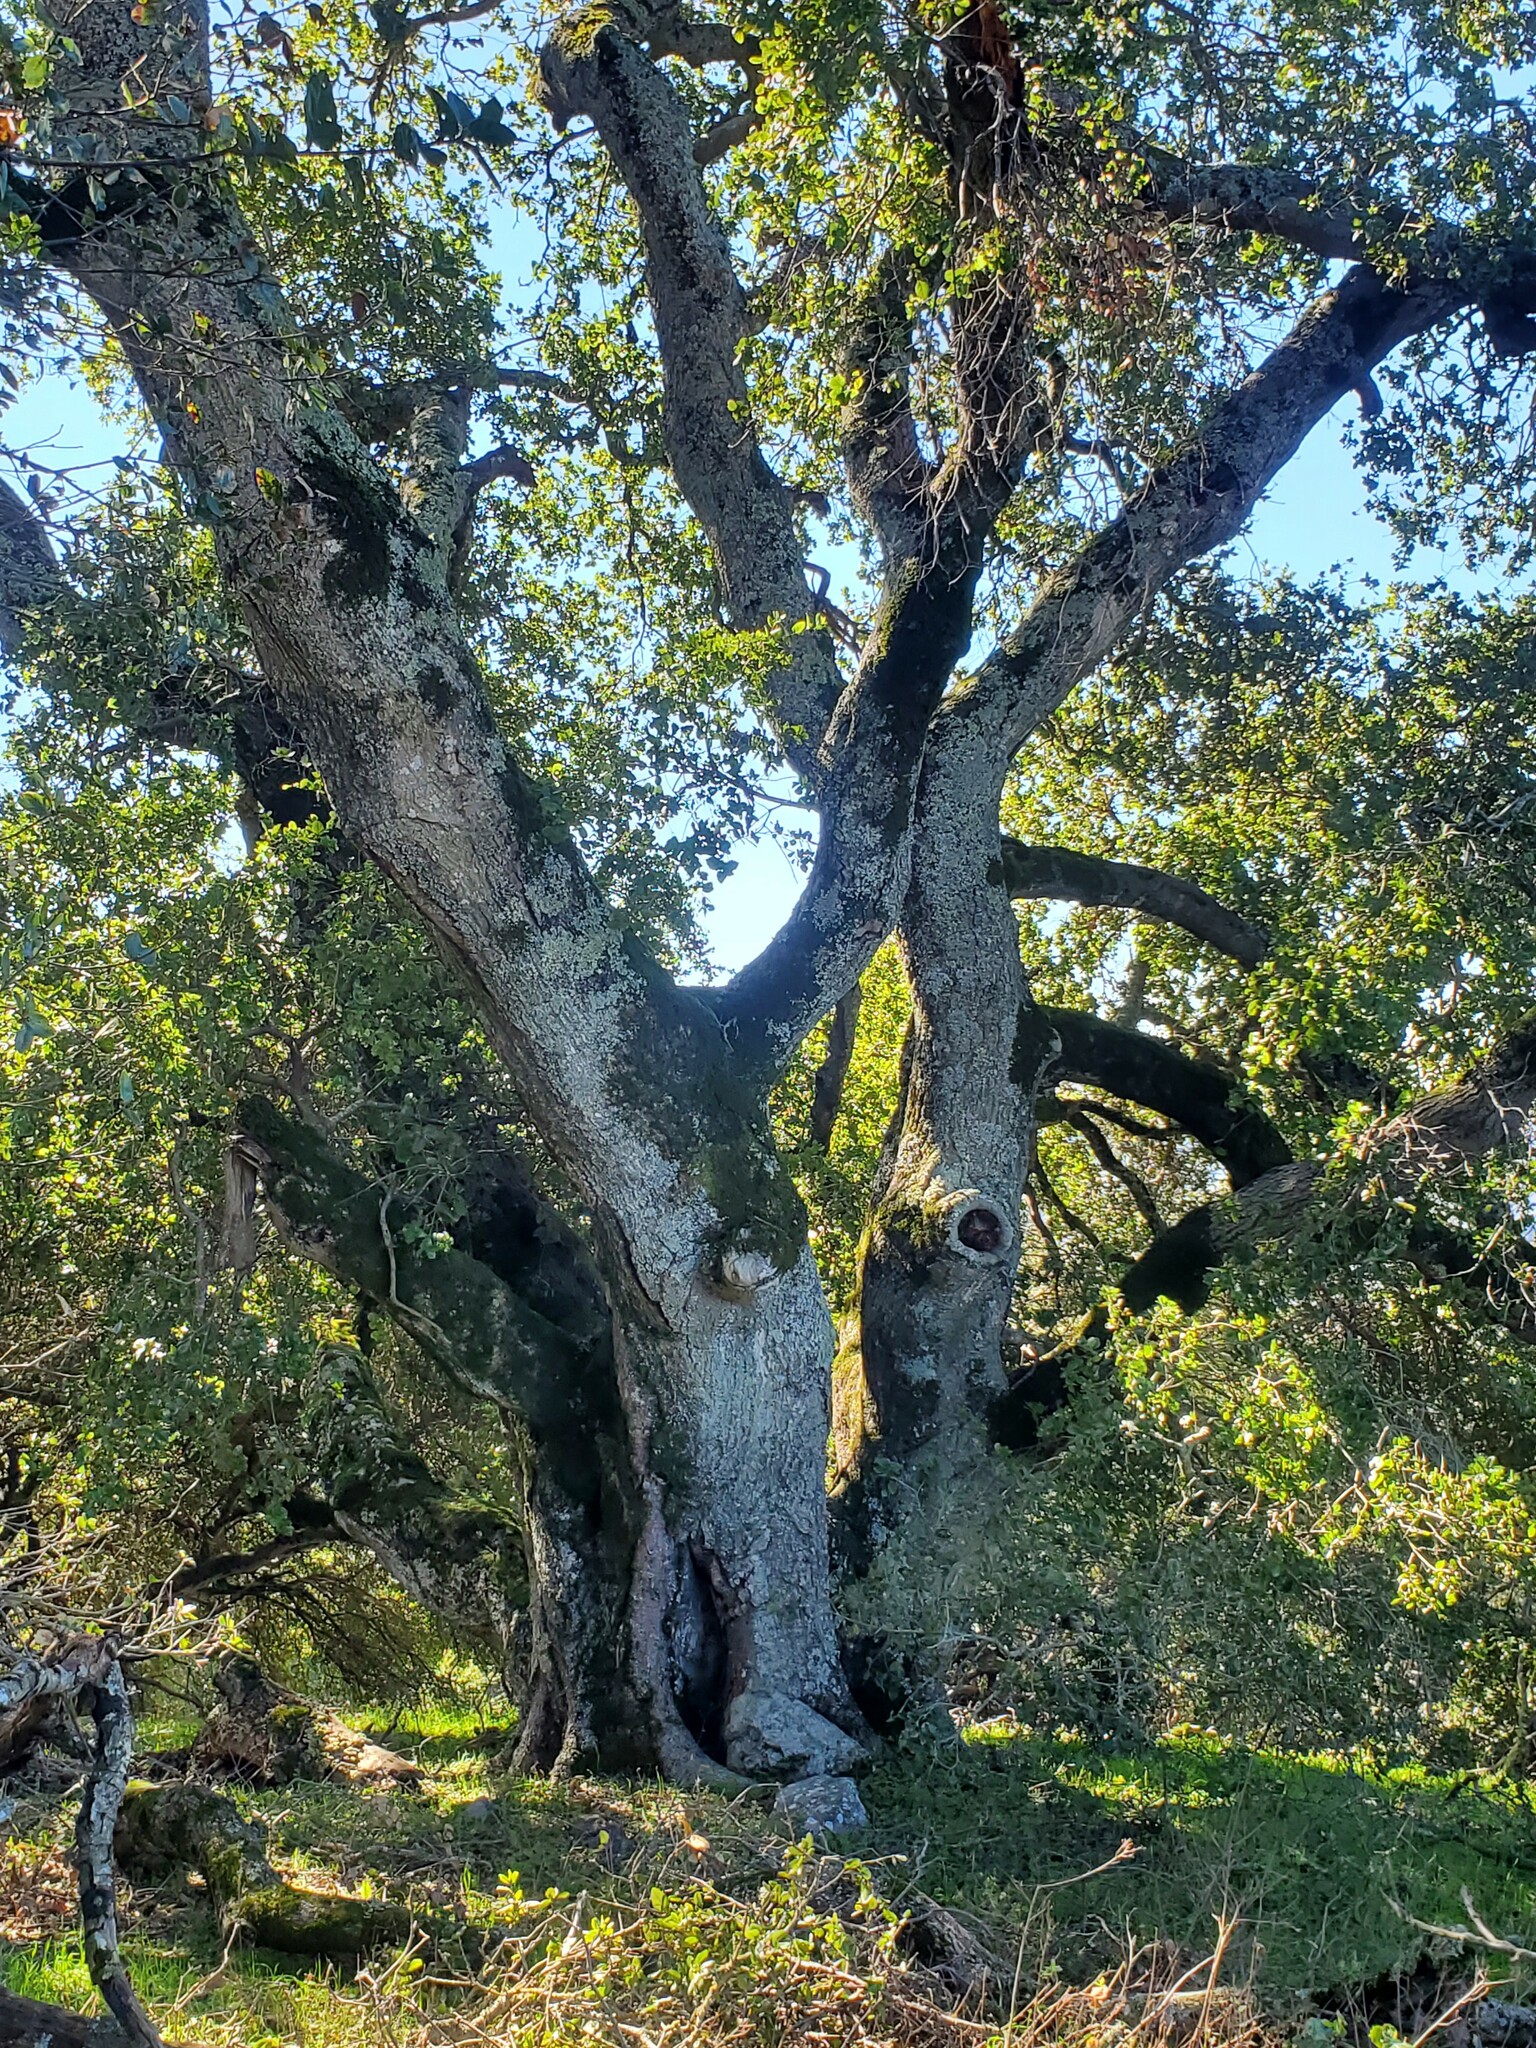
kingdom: Plantae
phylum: Tracheophyta
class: Magnoliopsida
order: Fagales
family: Fagaceae
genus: Quercus
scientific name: Quercus agrifolia
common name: California live oak
